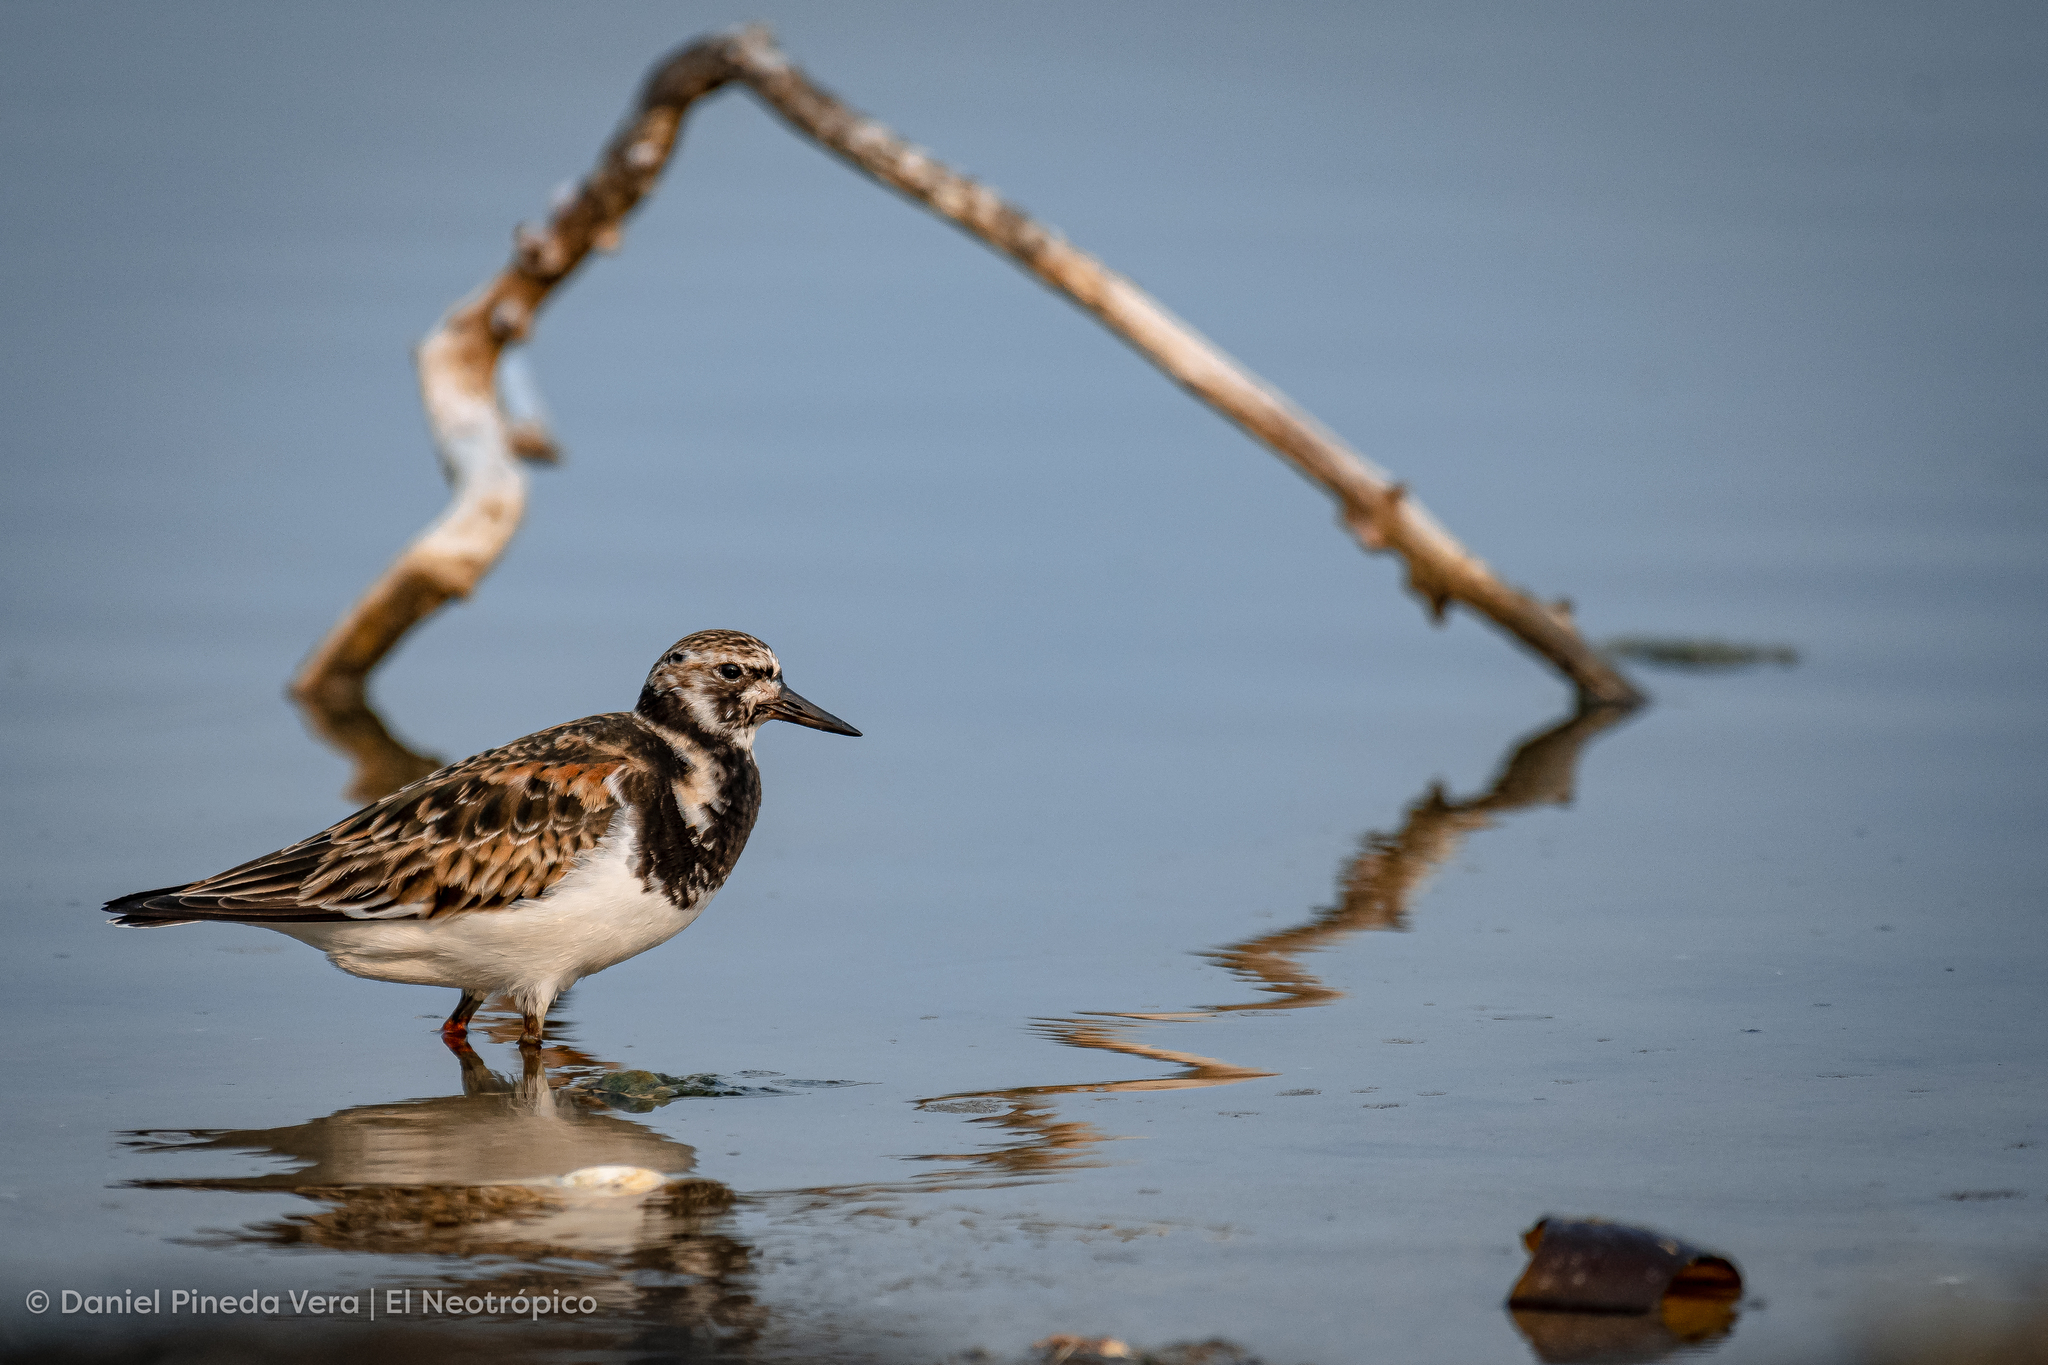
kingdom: Animalia
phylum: Chordata
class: Aves
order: Charadriiformes
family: Scolopacidae
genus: Arenaria
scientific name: Arenaria interpres
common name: Ruddy turnstone
